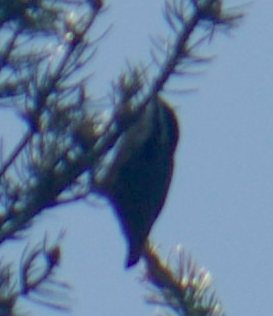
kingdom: Animalia
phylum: Chordata
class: Aves
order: Passeriformes
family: Sittidae
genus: Sitta
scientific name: Sitta canadensis
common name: Red-breasted nuthatch
